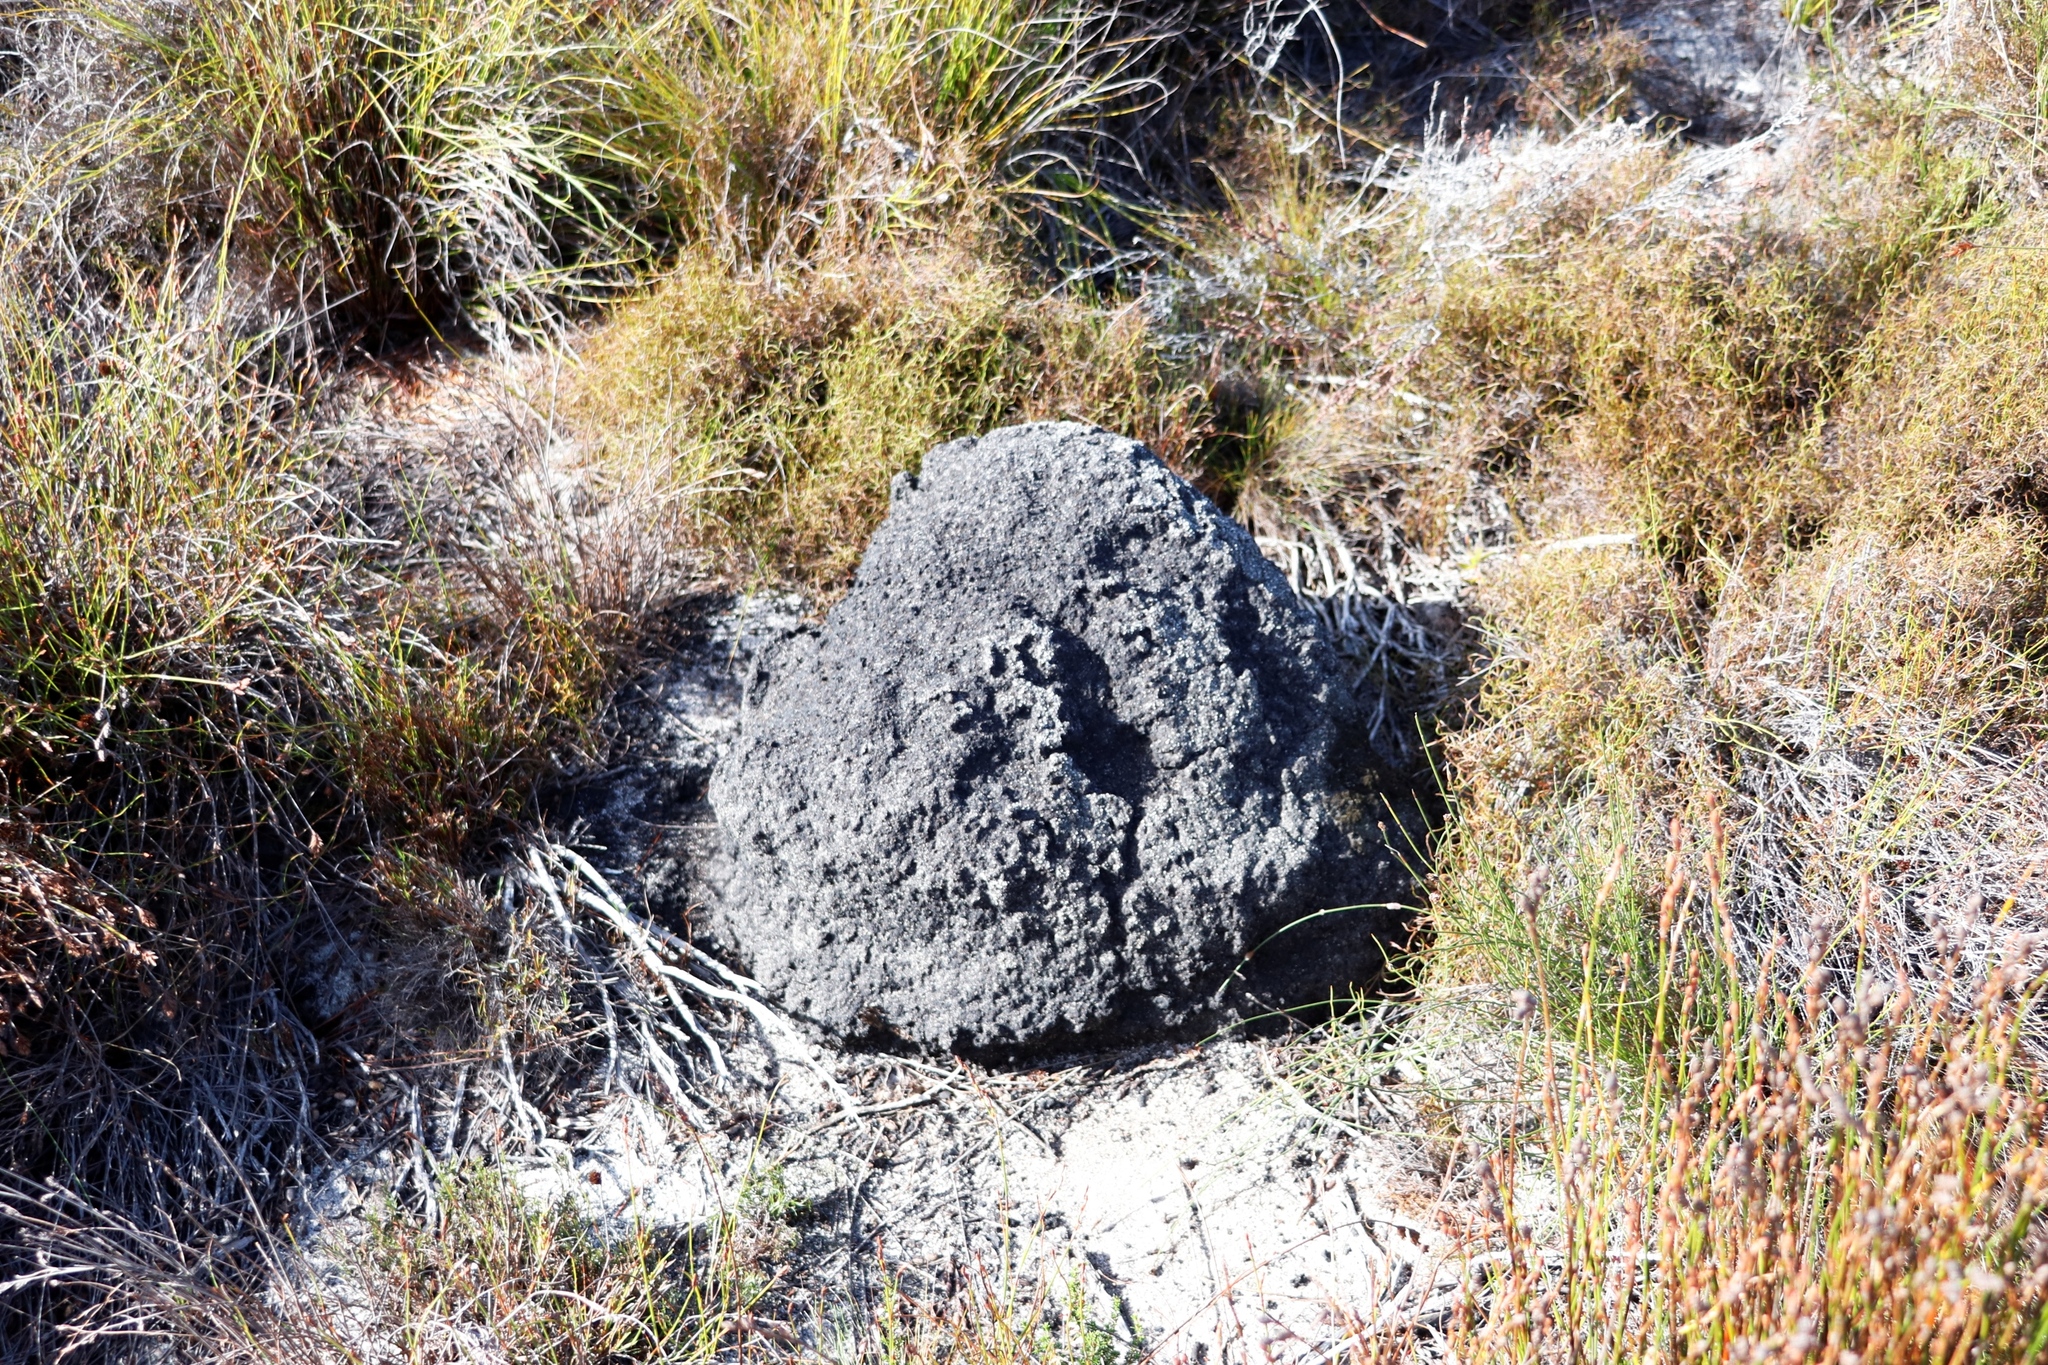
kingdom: Animalia
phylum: Arthropoda
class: Insecta
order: Blattodea
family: Termitidae
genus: Amitermes
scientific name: Amitermes hastatus
